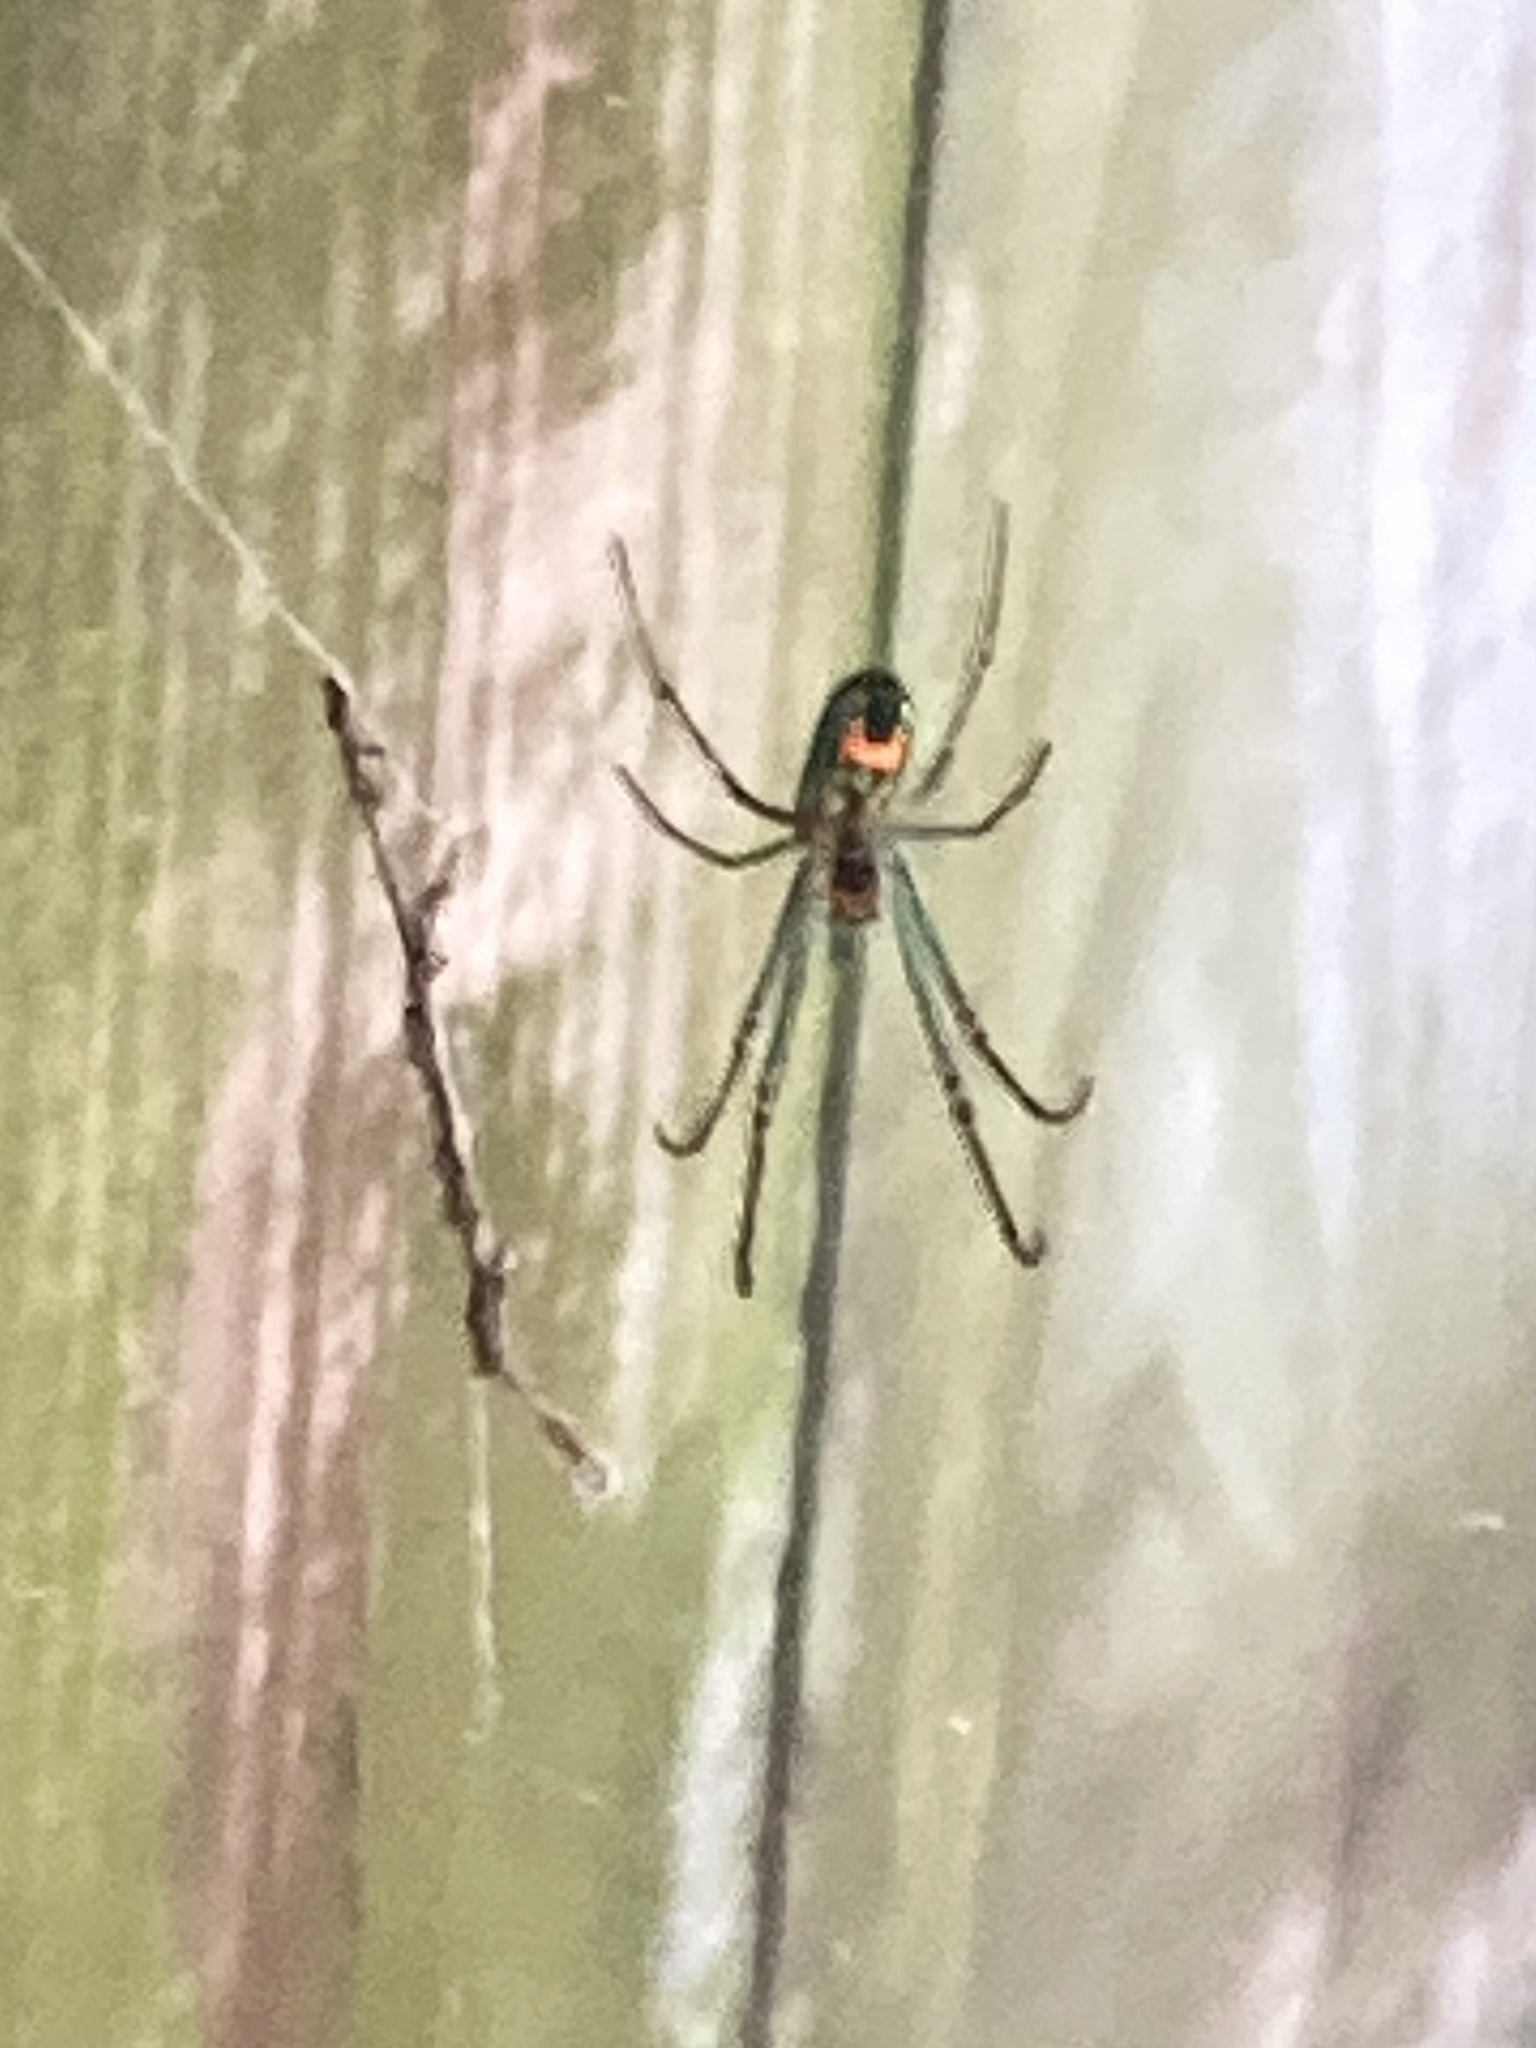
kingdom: Animalia
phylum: Arthropoda
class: Arachnida
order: Araneae
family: Tetragnathidae
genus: Leucauge
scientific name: Leucauge argyrobapta
